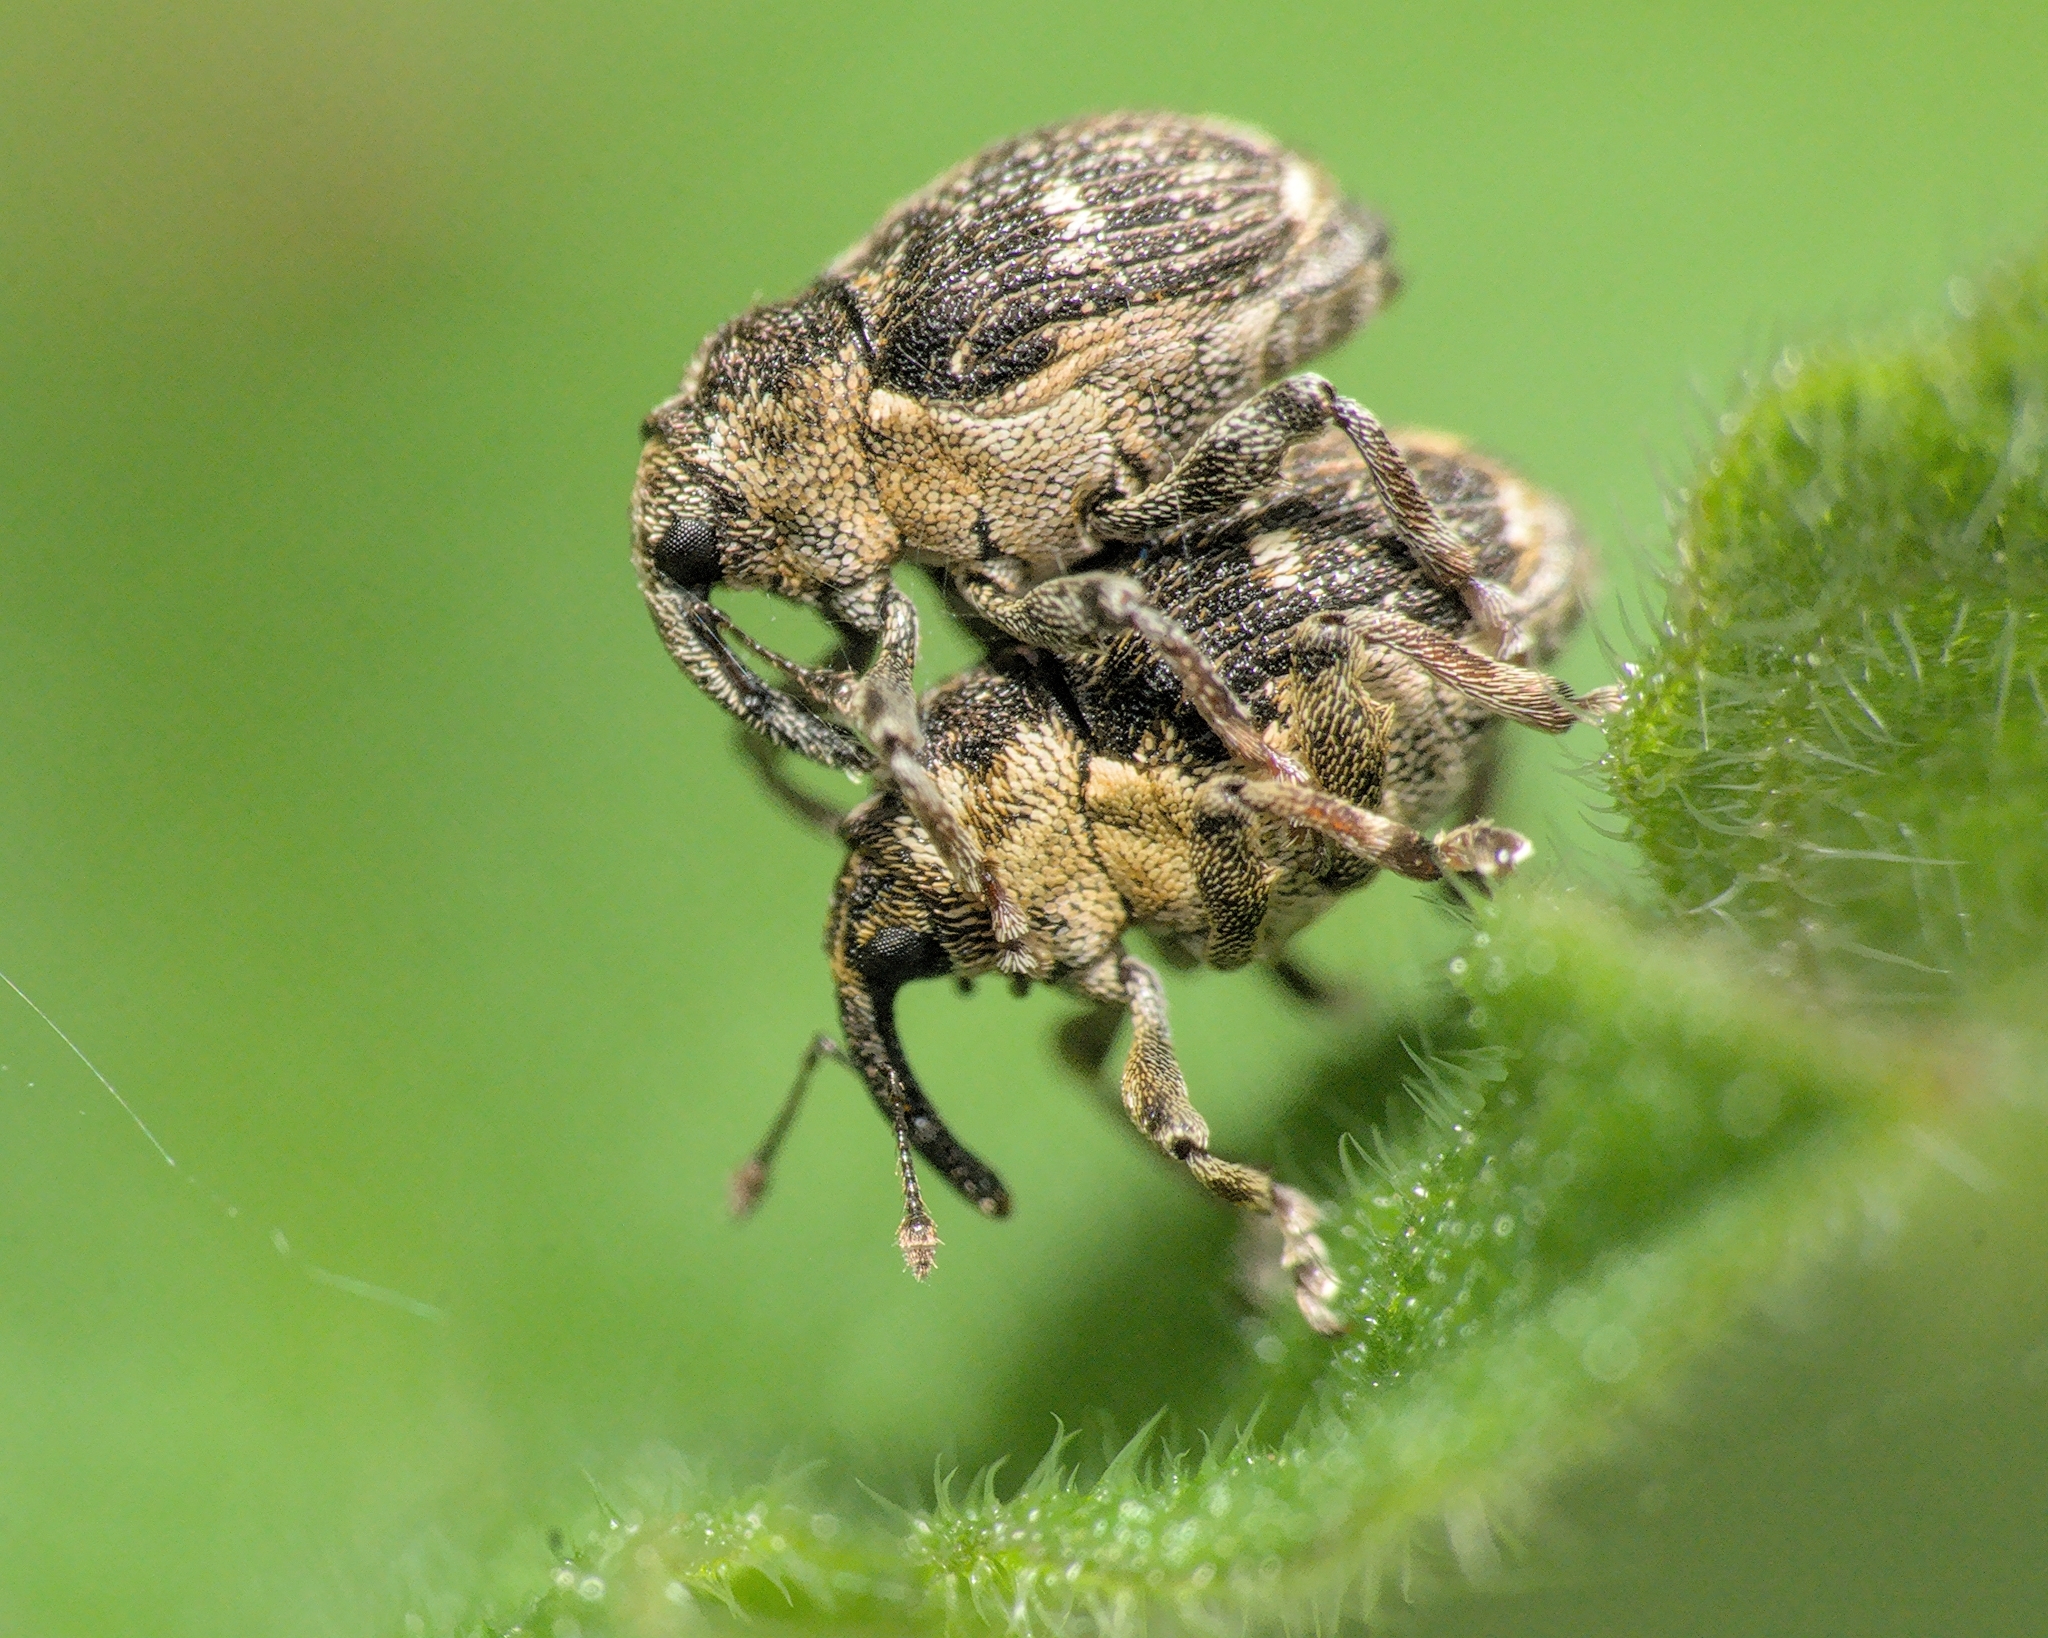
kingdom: Animalia
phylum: Arthropoda
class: Insecta
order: Coleoptera
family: Curculionidae
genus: Nedyus
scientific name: Nedyus quadrimaculatus
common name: Small nettle weevil
